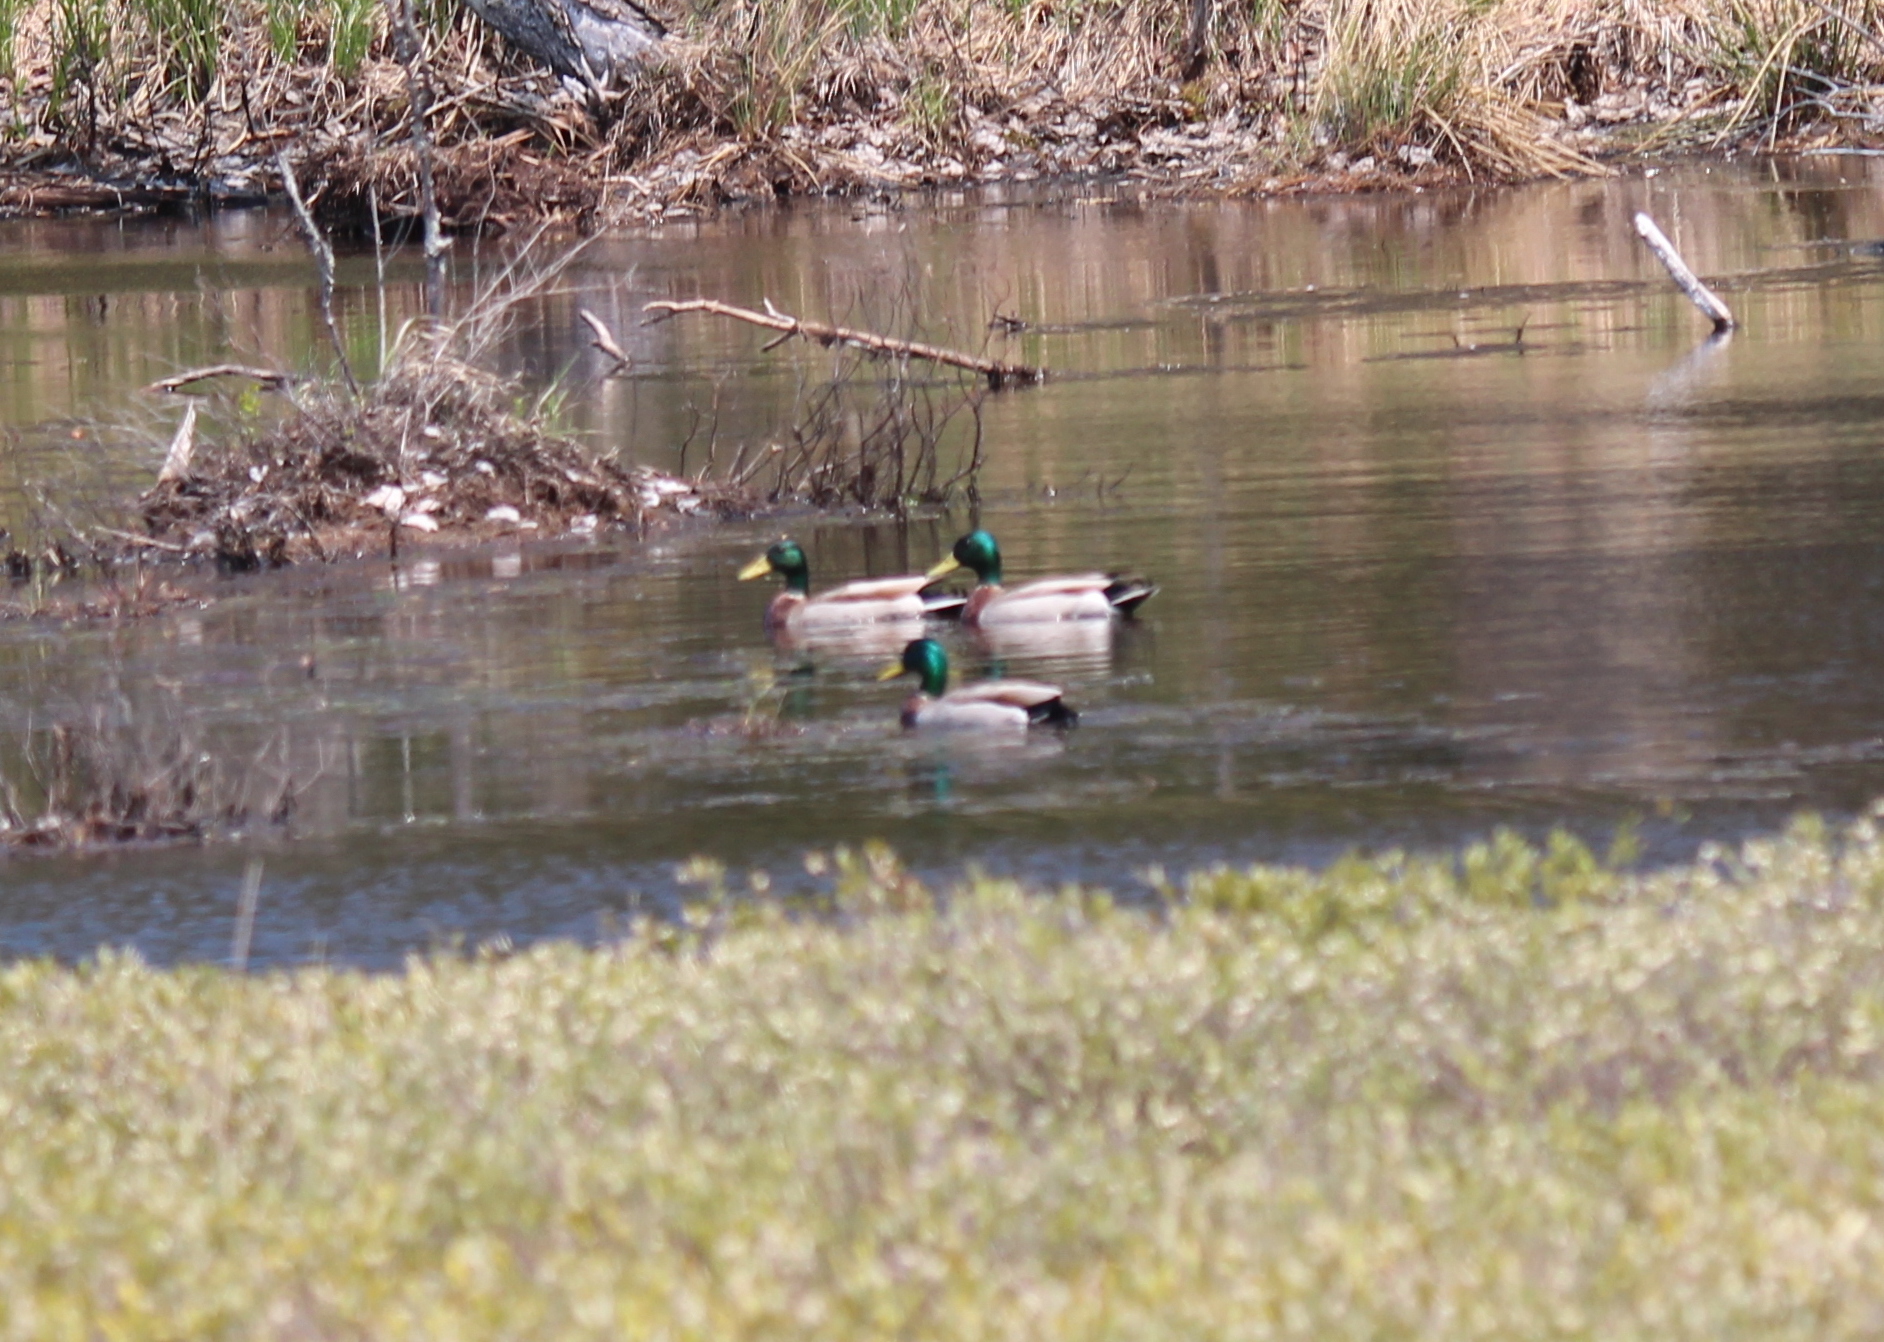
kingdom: Animalia
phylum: Chordata
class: Aves
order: Anseriformes
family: Anatidae
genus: Anas
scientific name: Anas platyrhynchos
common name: Mallard
